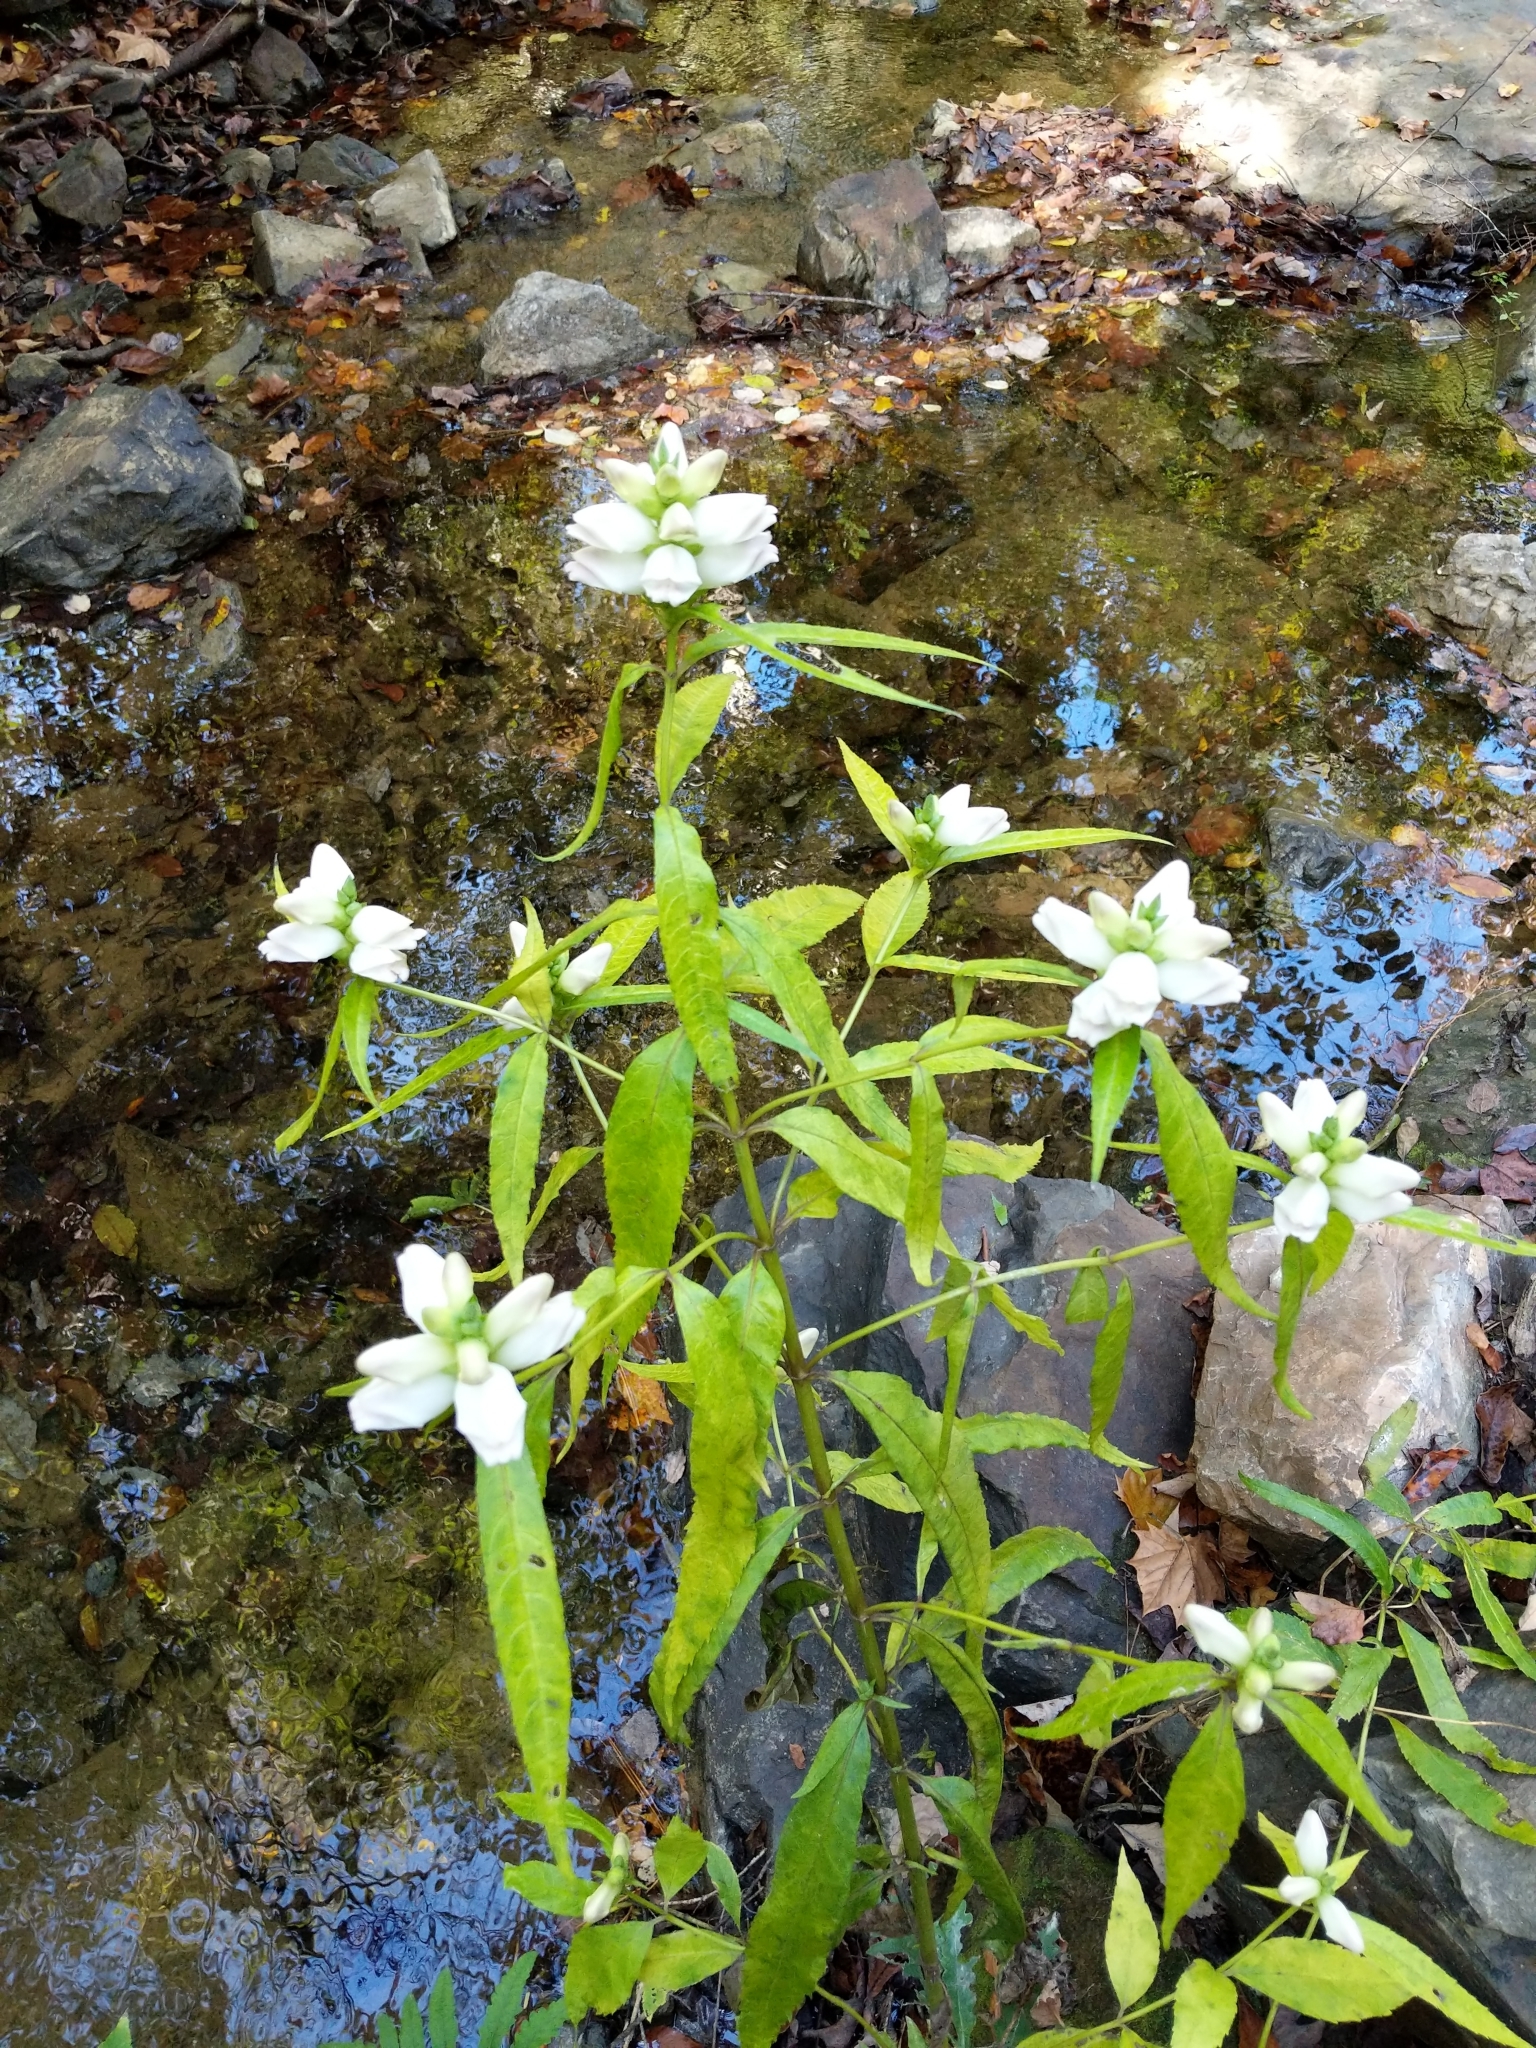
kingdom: Plantae
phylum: Tracheophyta
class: Magnoliopsida
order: Lamiales
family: Plantaginaceae
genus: Chelone
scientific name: Chelone glabra
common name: Snakehead
